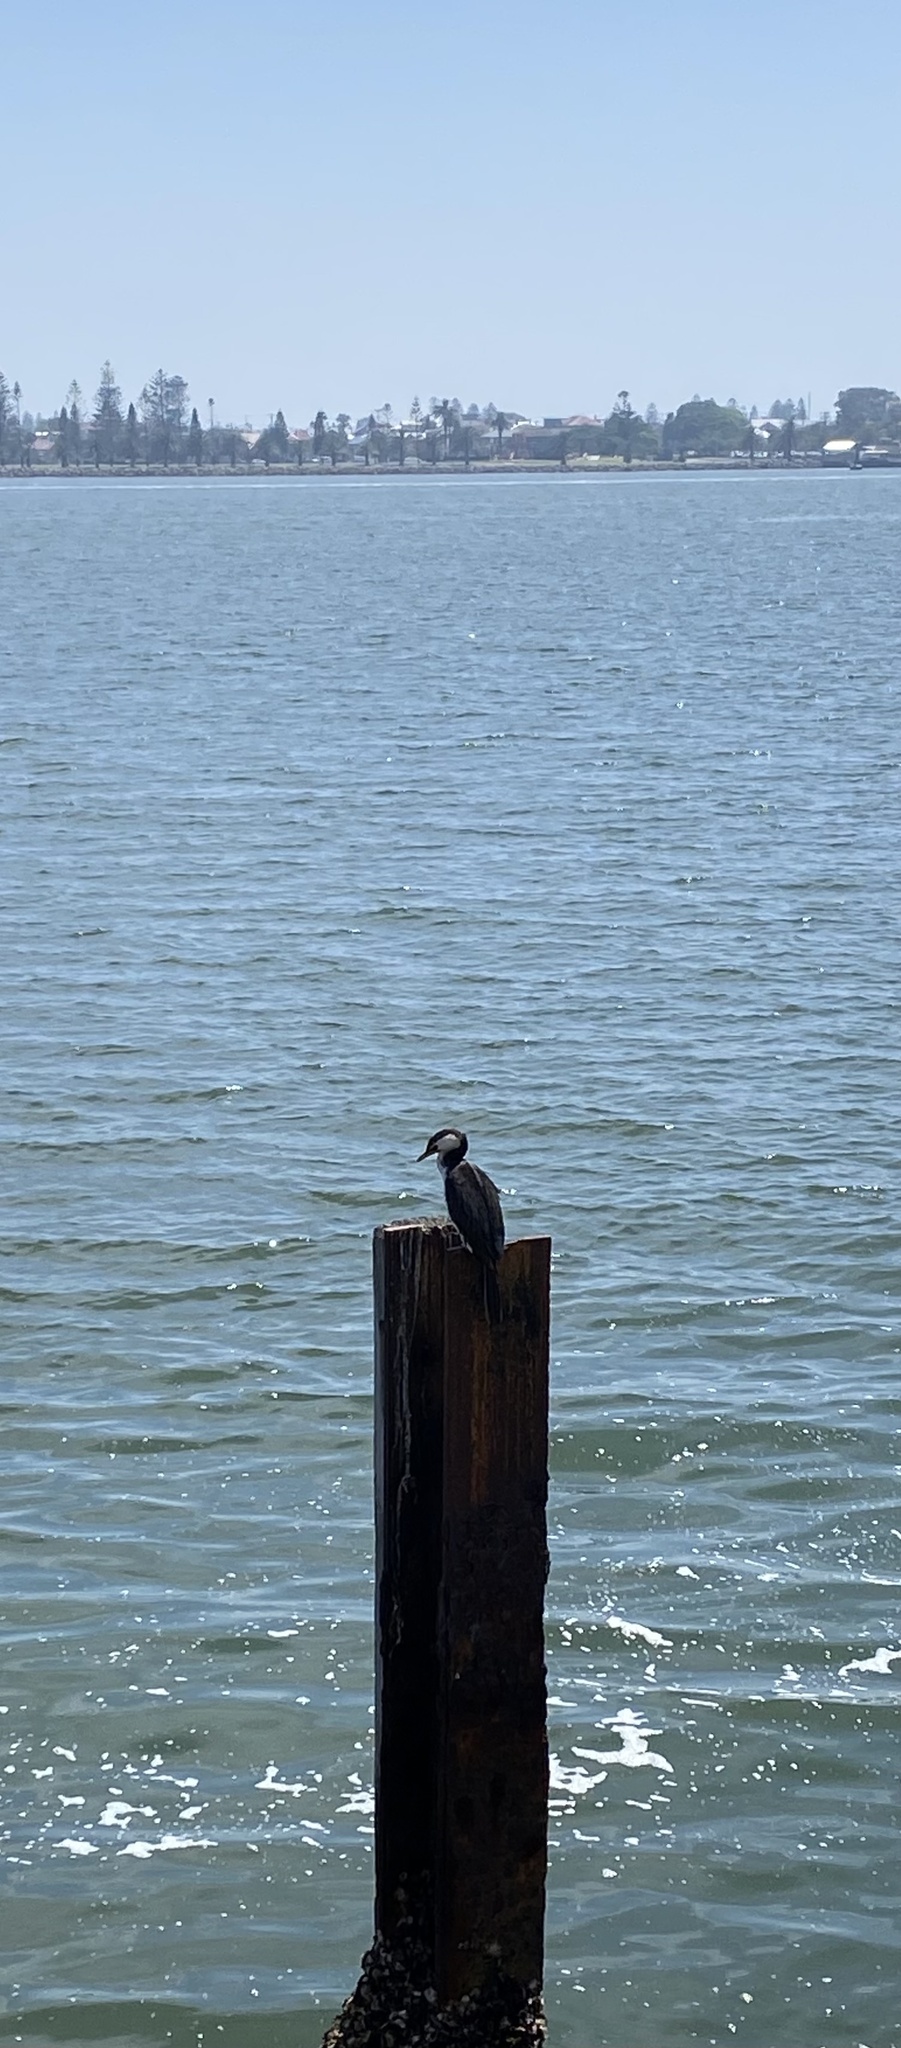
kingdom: Animalia
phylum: Chordata
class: Aves
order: Suliformes
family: Phalacrocoracidae
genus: Microcarbo
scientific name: Microcarbo melanoleucos
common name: Little pied cormorant
